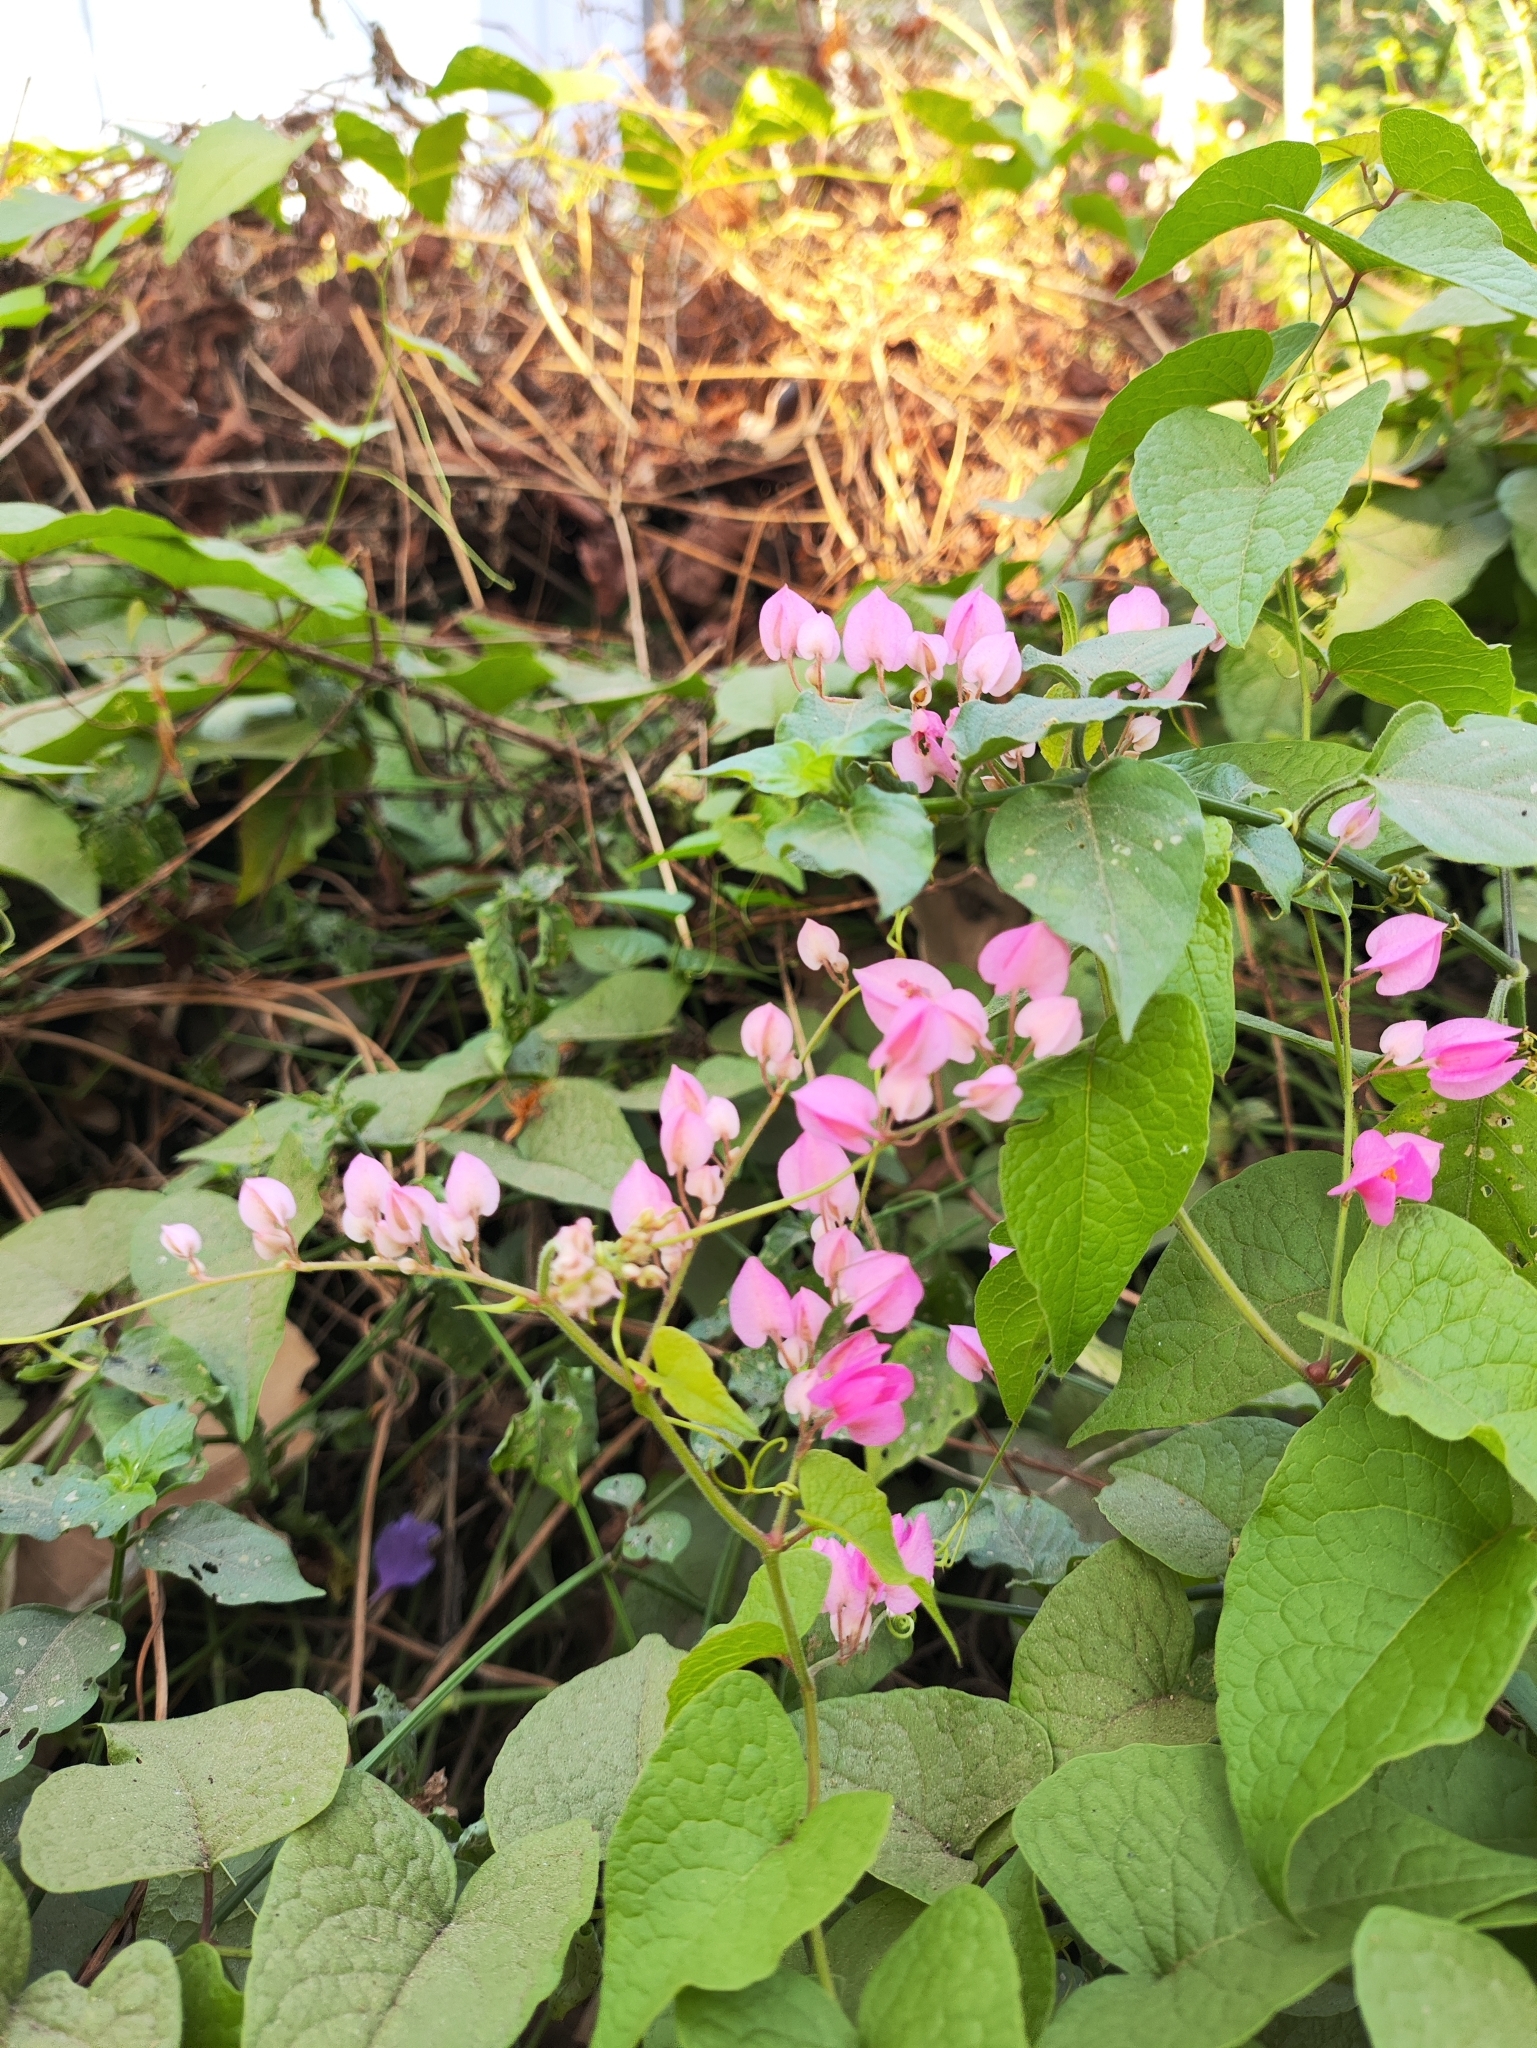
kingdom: Plantae
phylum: Tracheophyta
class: Magnoliopsida
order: Caryophyllales
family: Polygonaceae
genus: Antigonon
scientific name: Antigonon leptopus
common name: Coral vine
